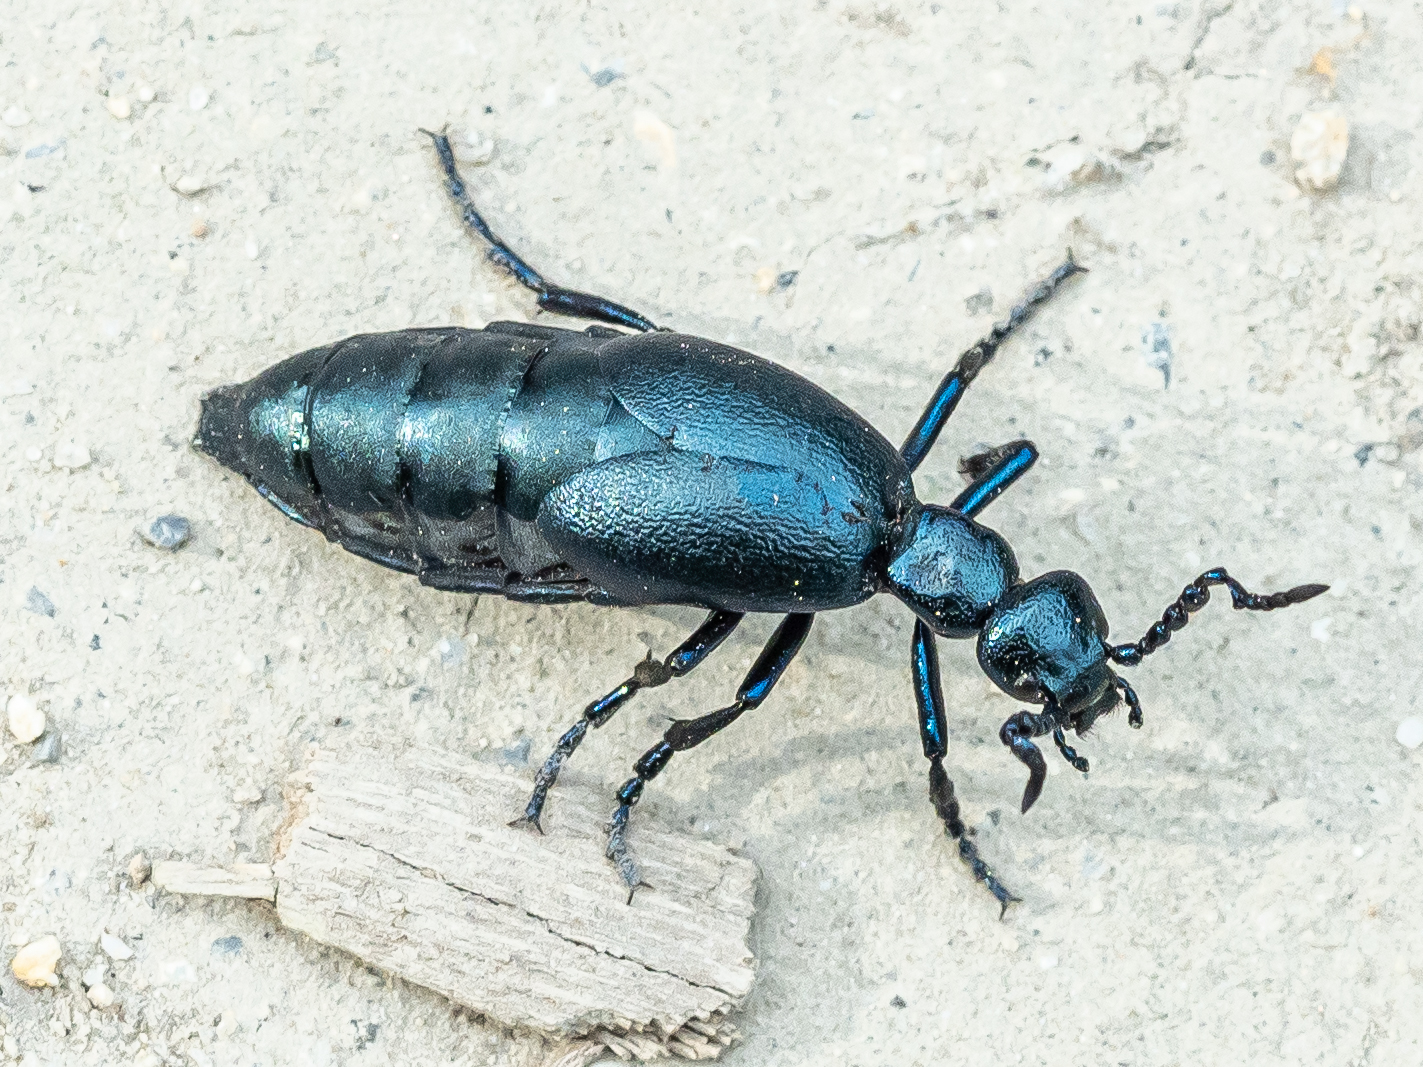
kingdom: Animalia
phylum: Arthropoda
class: Insecta
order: Coleoptera
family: Meloidae
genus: Meloe
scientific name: Meloe violaceus
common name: Violet oil-beetle
